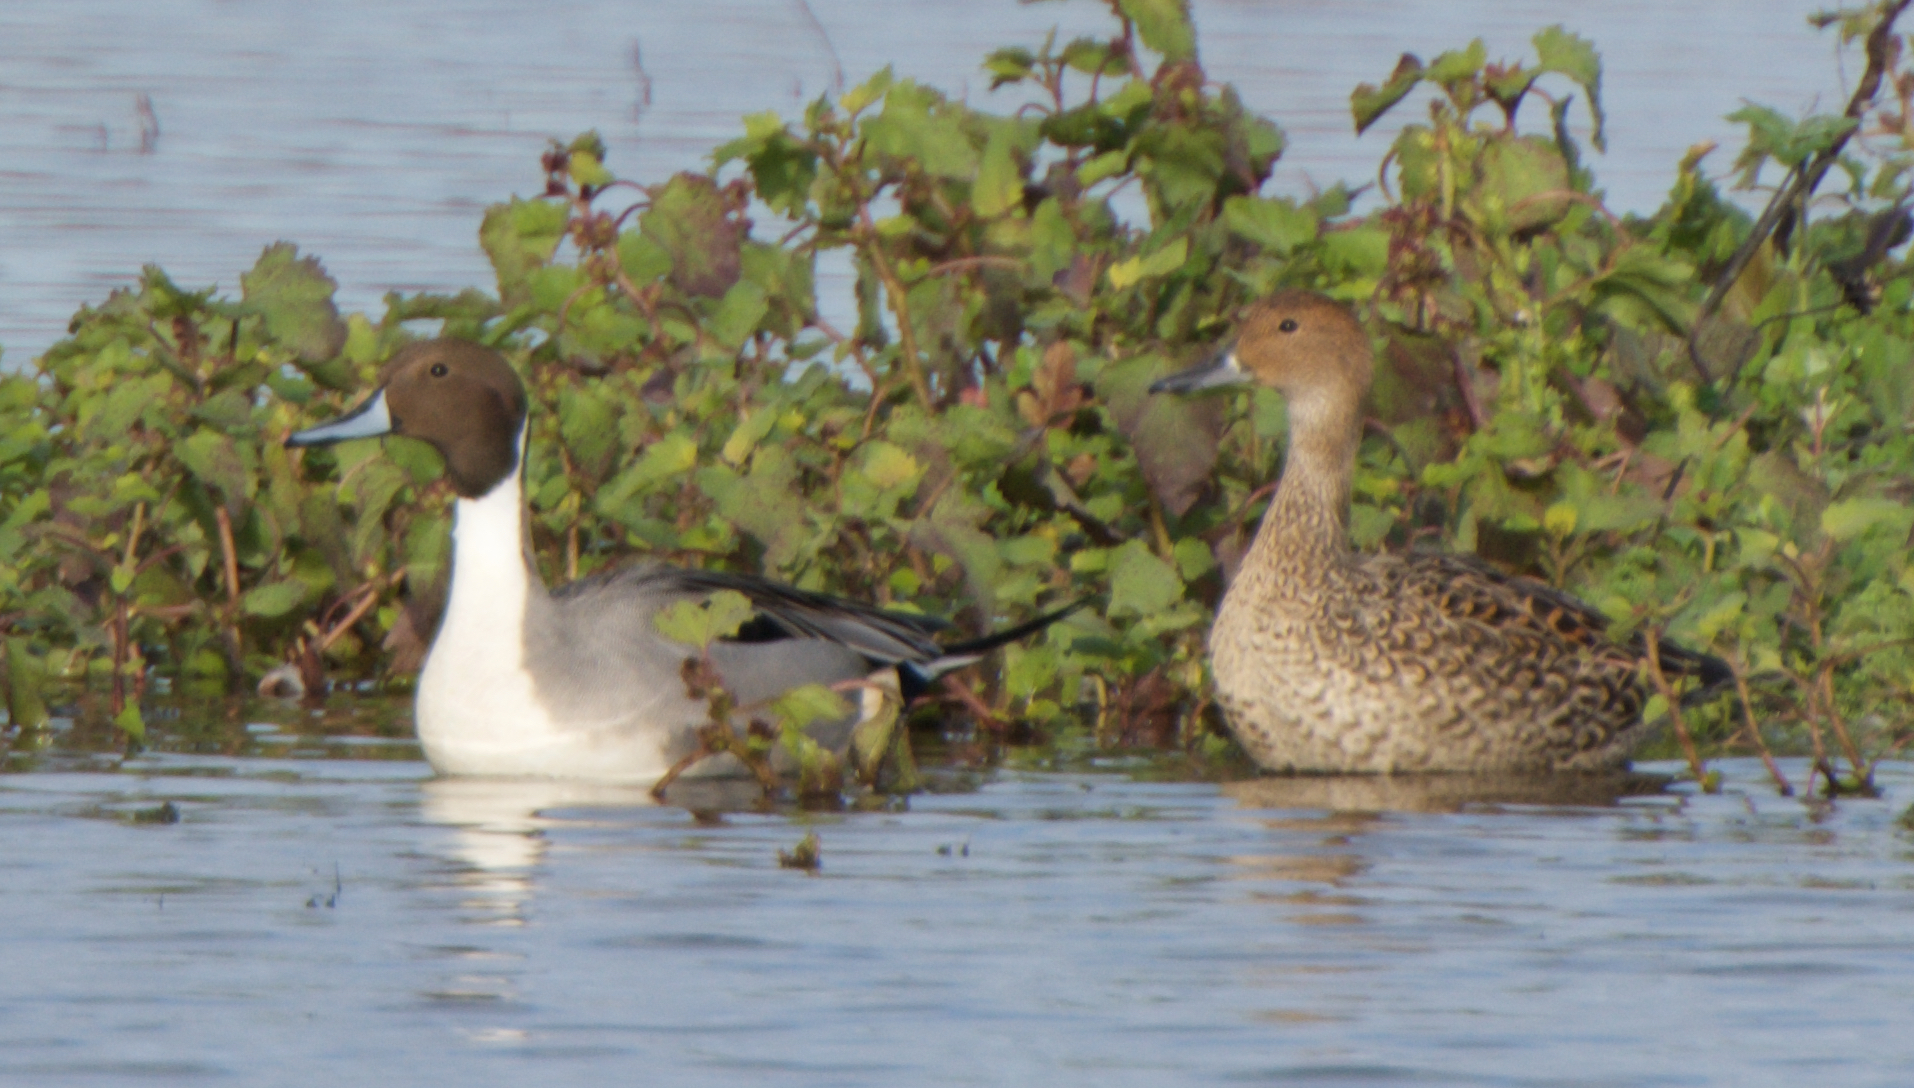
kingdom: Animalia
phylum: Chordata
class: Aves
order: Anseriformes
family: Anatidae
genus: Anas
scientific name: Anas acuta
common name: Northern pintail
